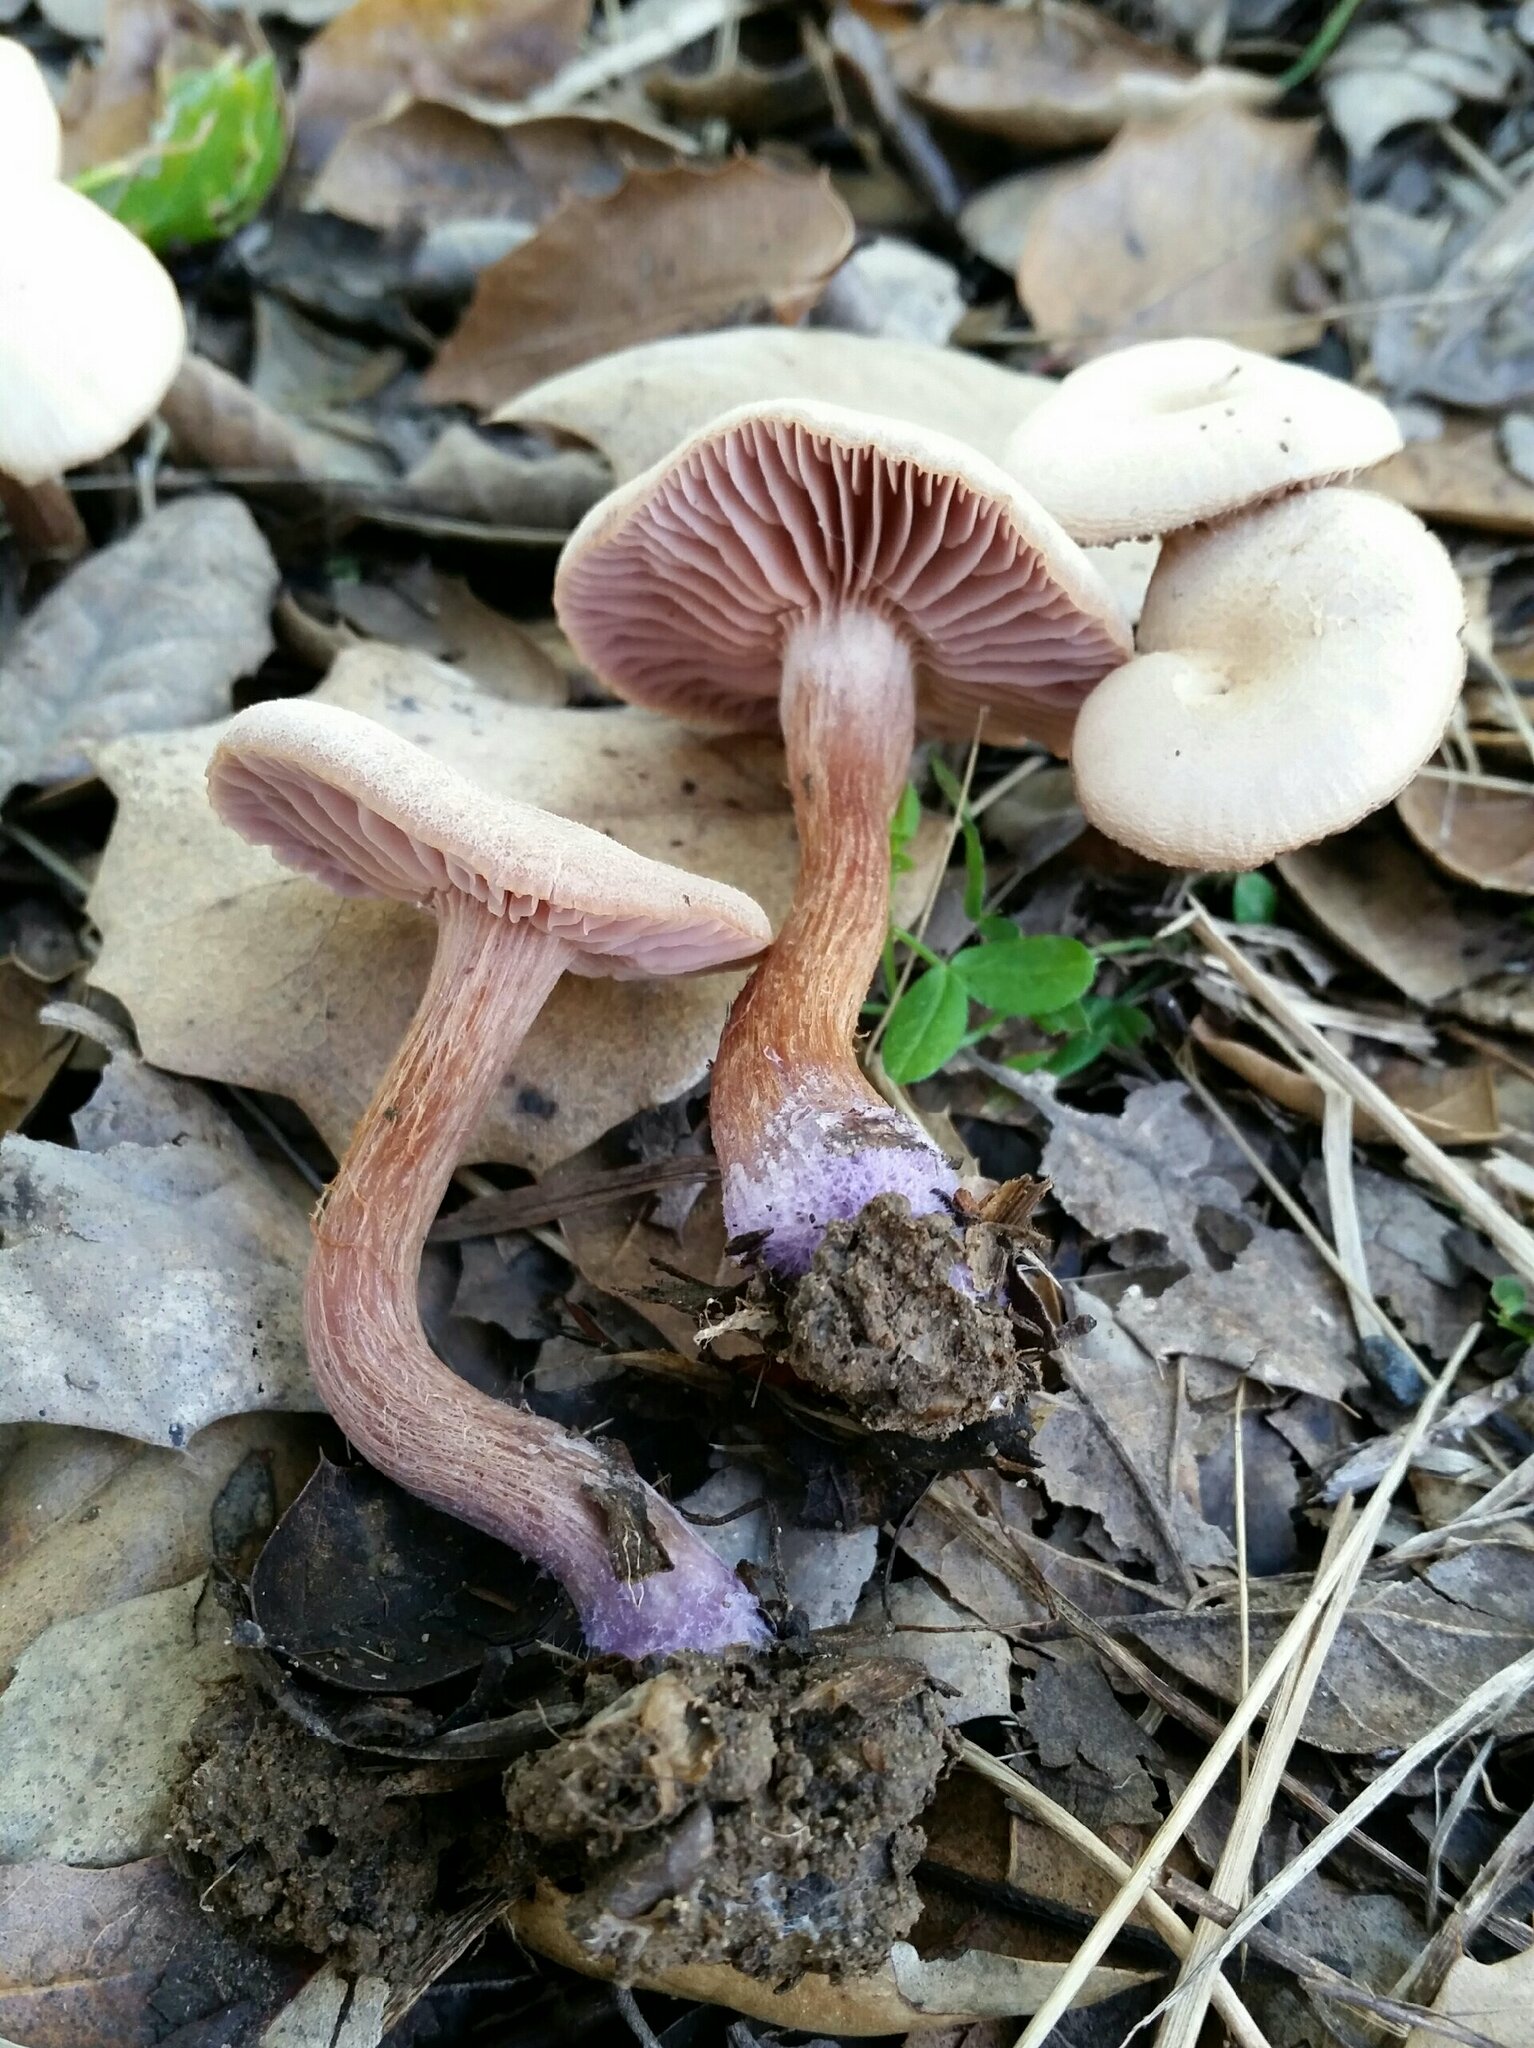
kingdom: Fungi
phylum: Basidiomycota
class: Agaricomycetes
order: Agaricales
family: Hydnangiaceae
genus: Laccaria
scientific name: Laccaria amethysteo-occidentalis
